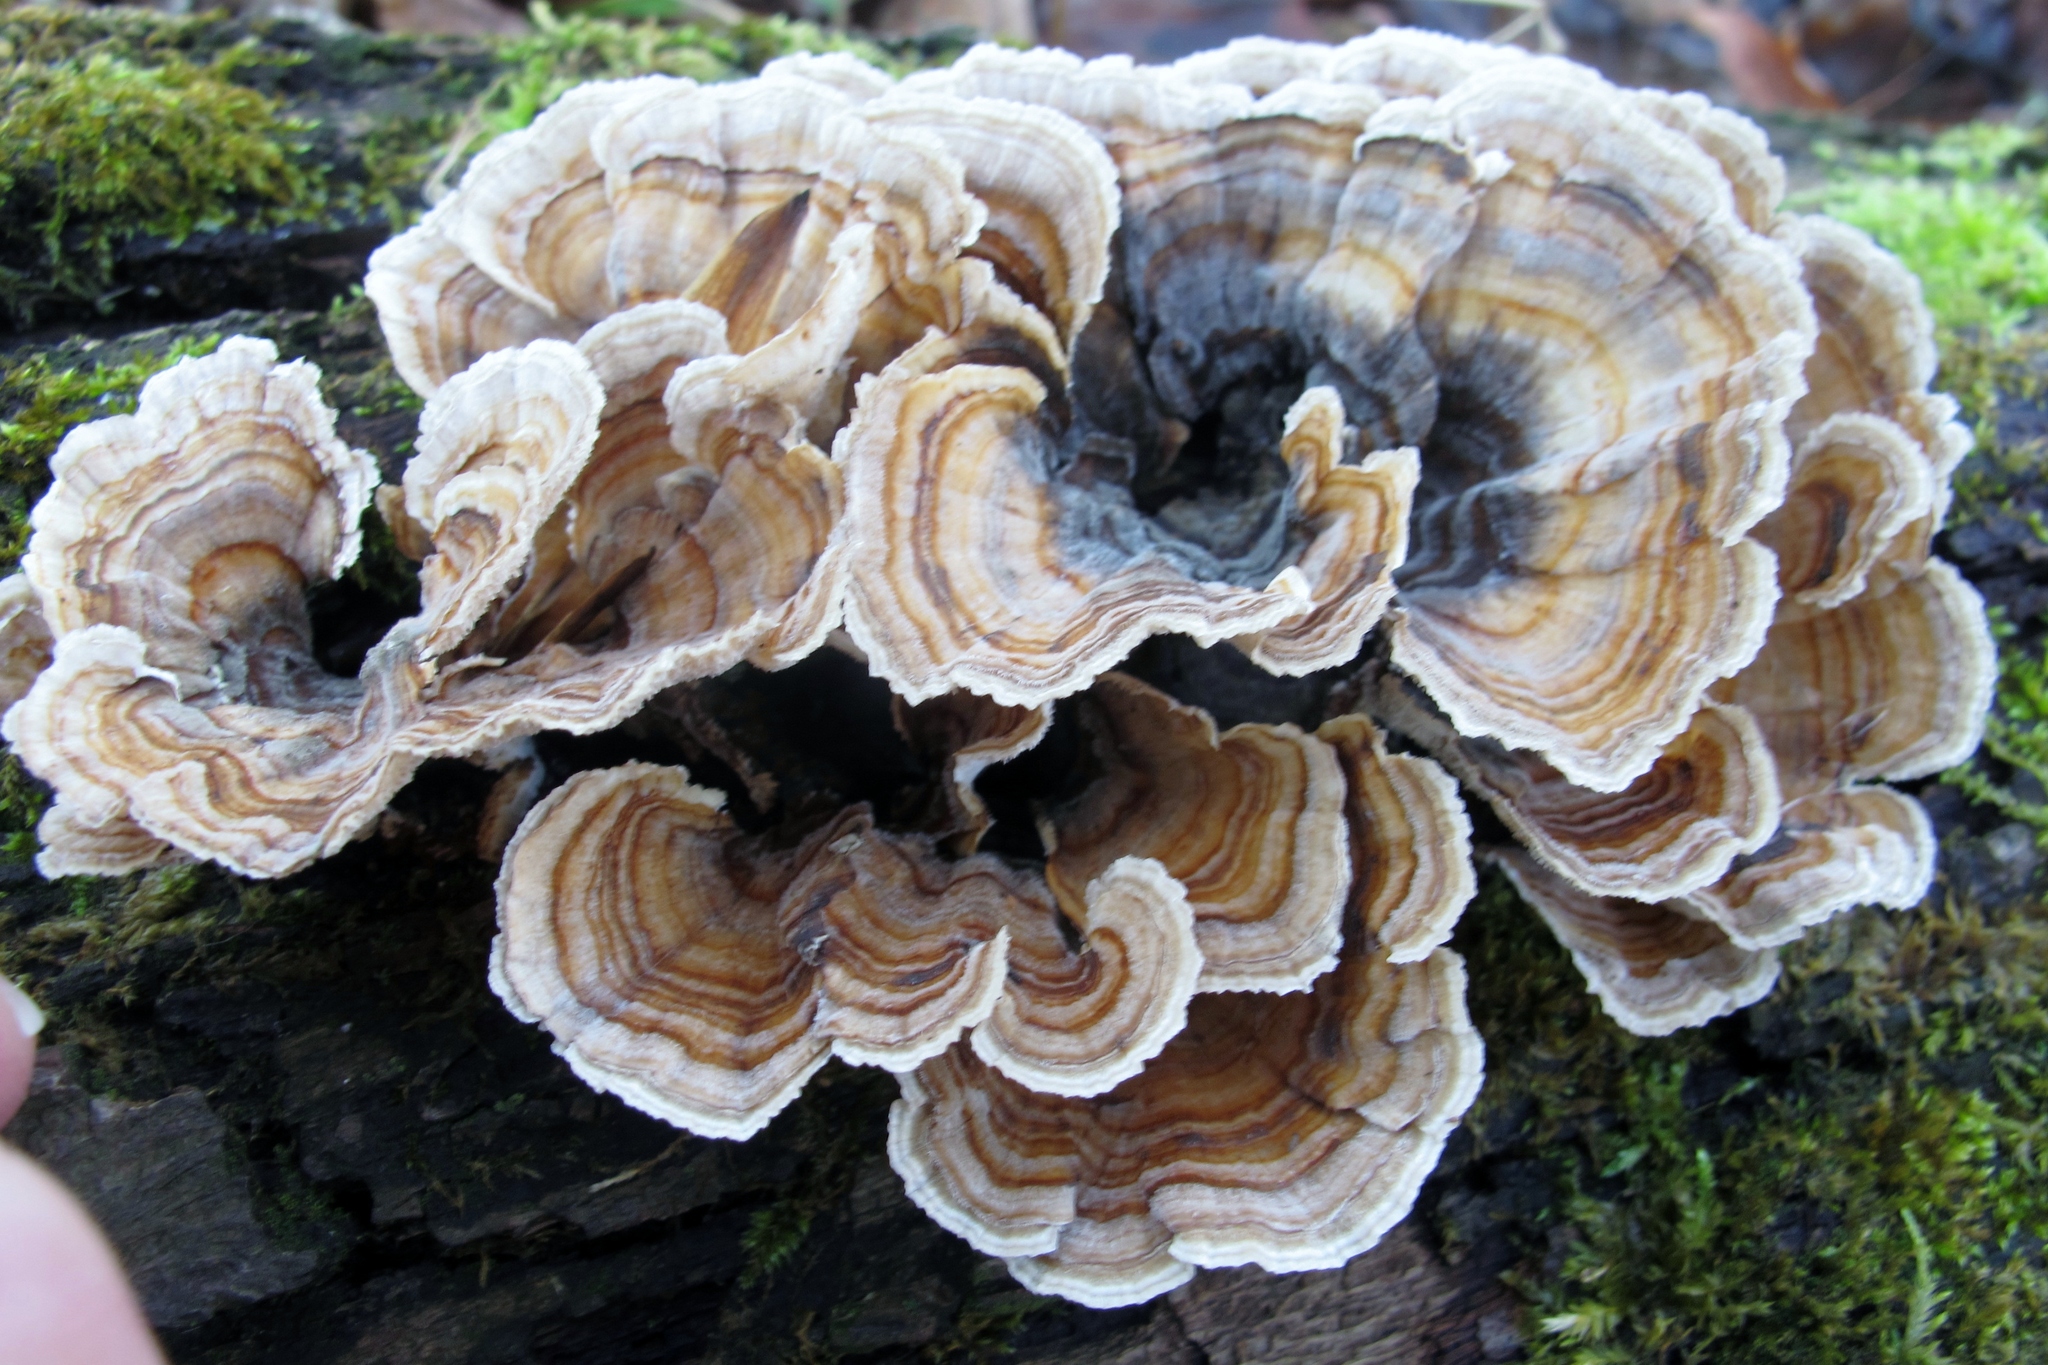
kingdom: Fungi
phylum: Basidiomycota
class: Agaricomycetes
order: Polyporales
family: Polyporaceae
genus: Trametes
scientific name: Trametes versicolor
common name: Turkeytail
